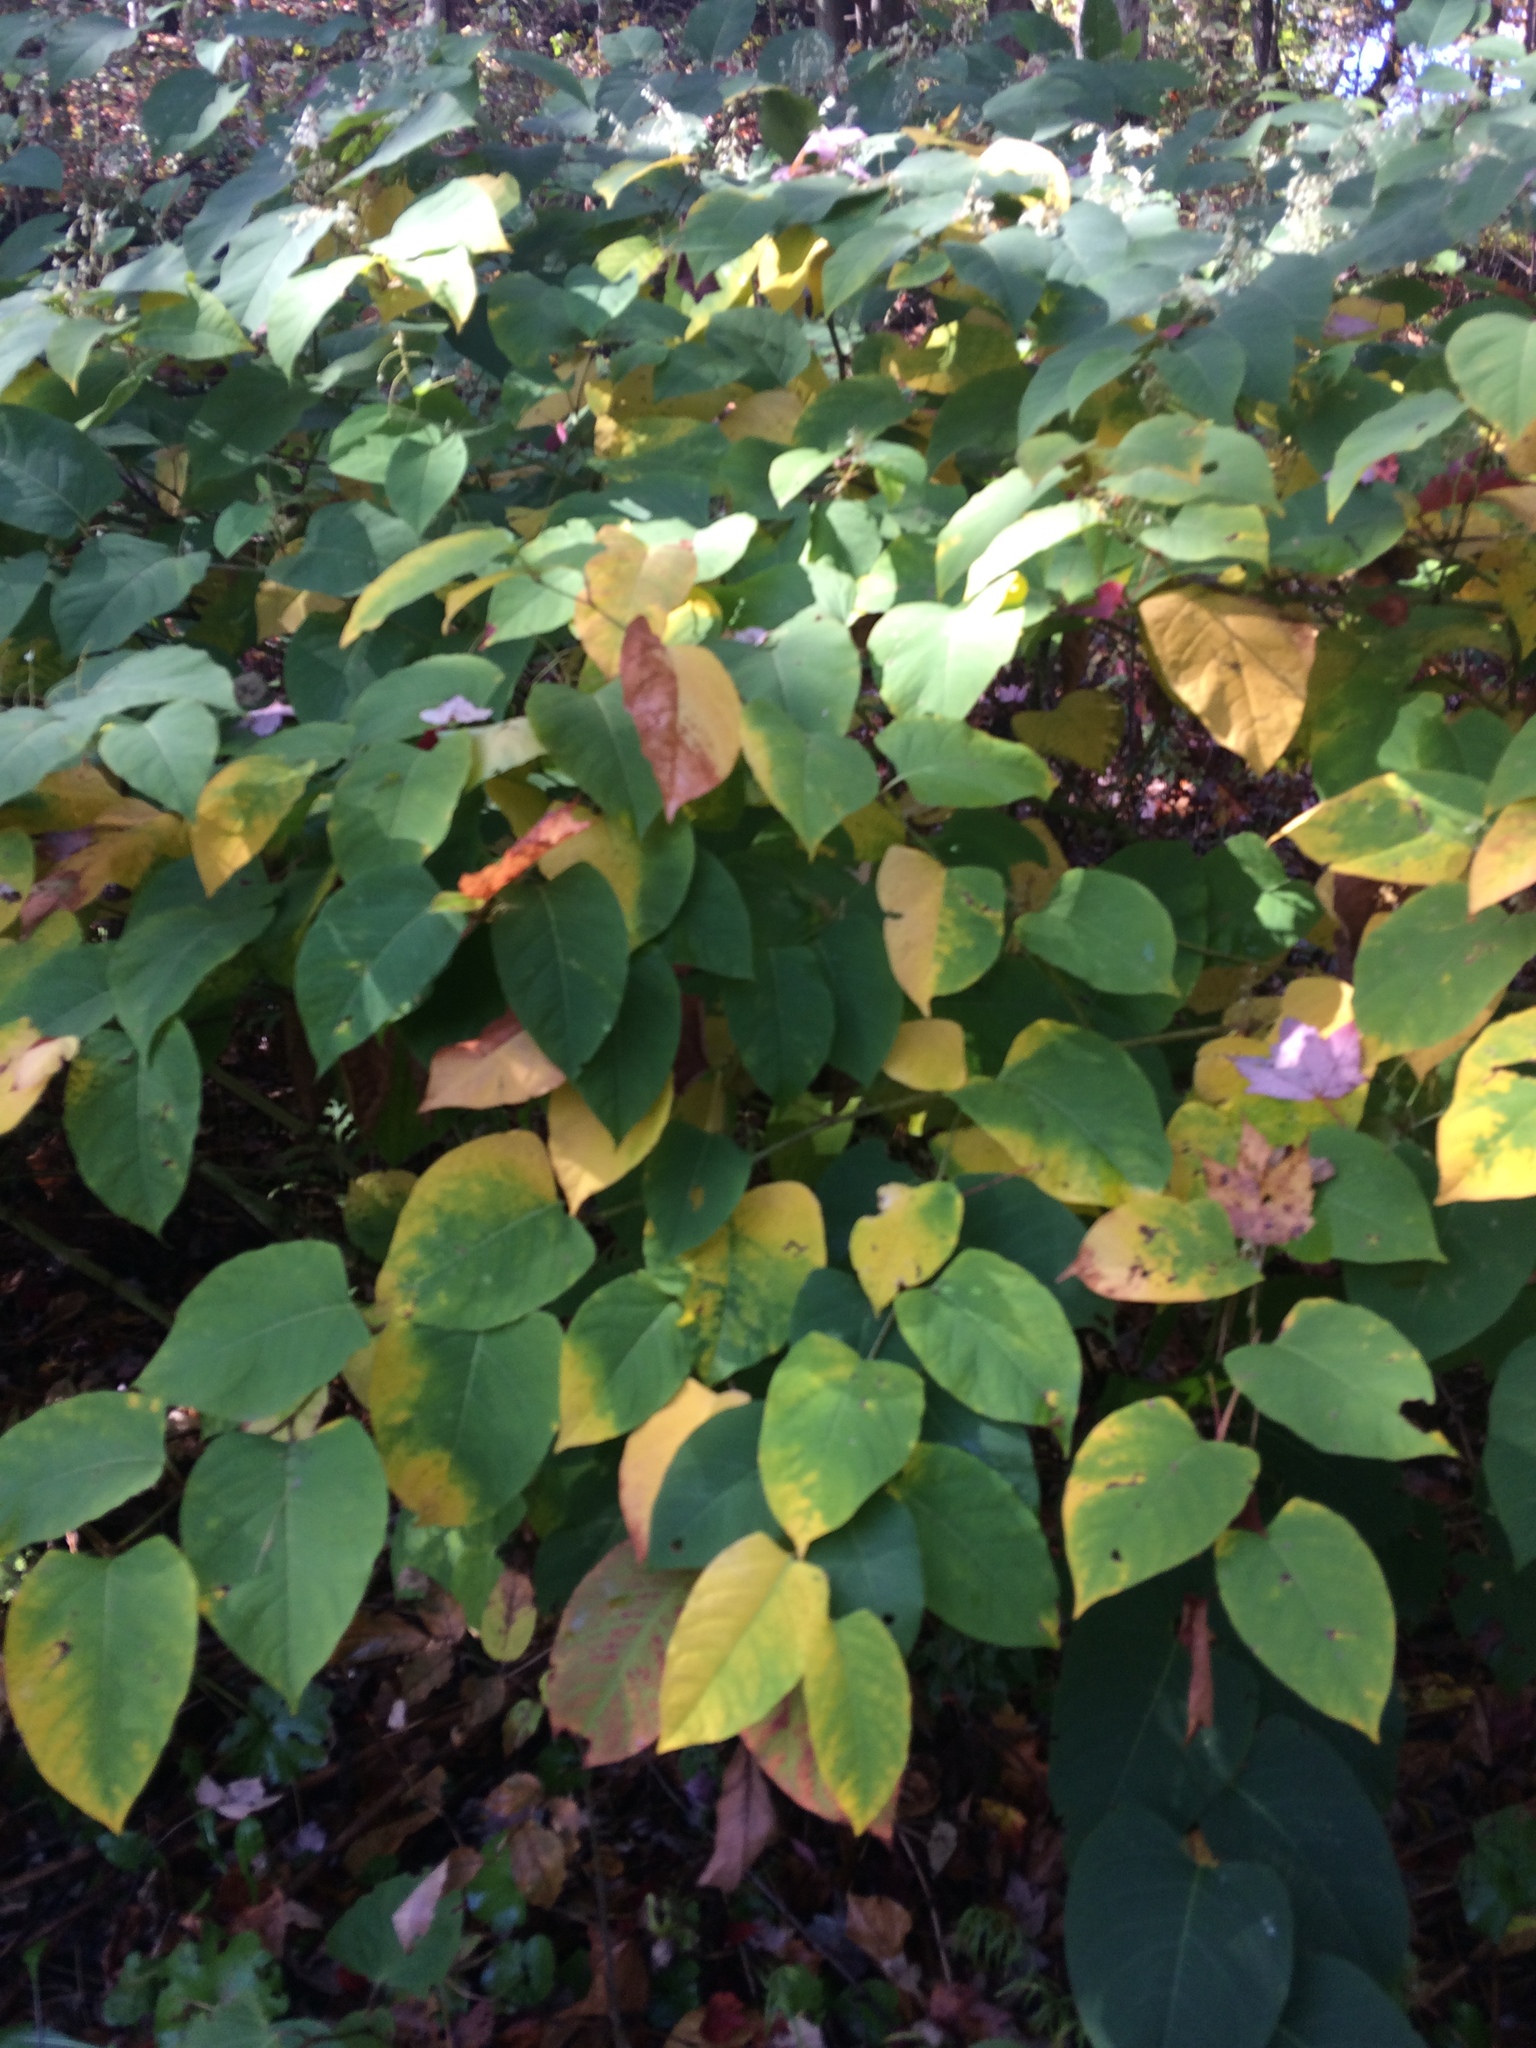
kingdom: Plantae
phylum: Tracheophyta
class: Magnoliopsida
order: Caryophyllales
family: Polygonaceae
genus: Reynoutria
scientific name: Reynoutria japonica
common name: Japanese knotweed
